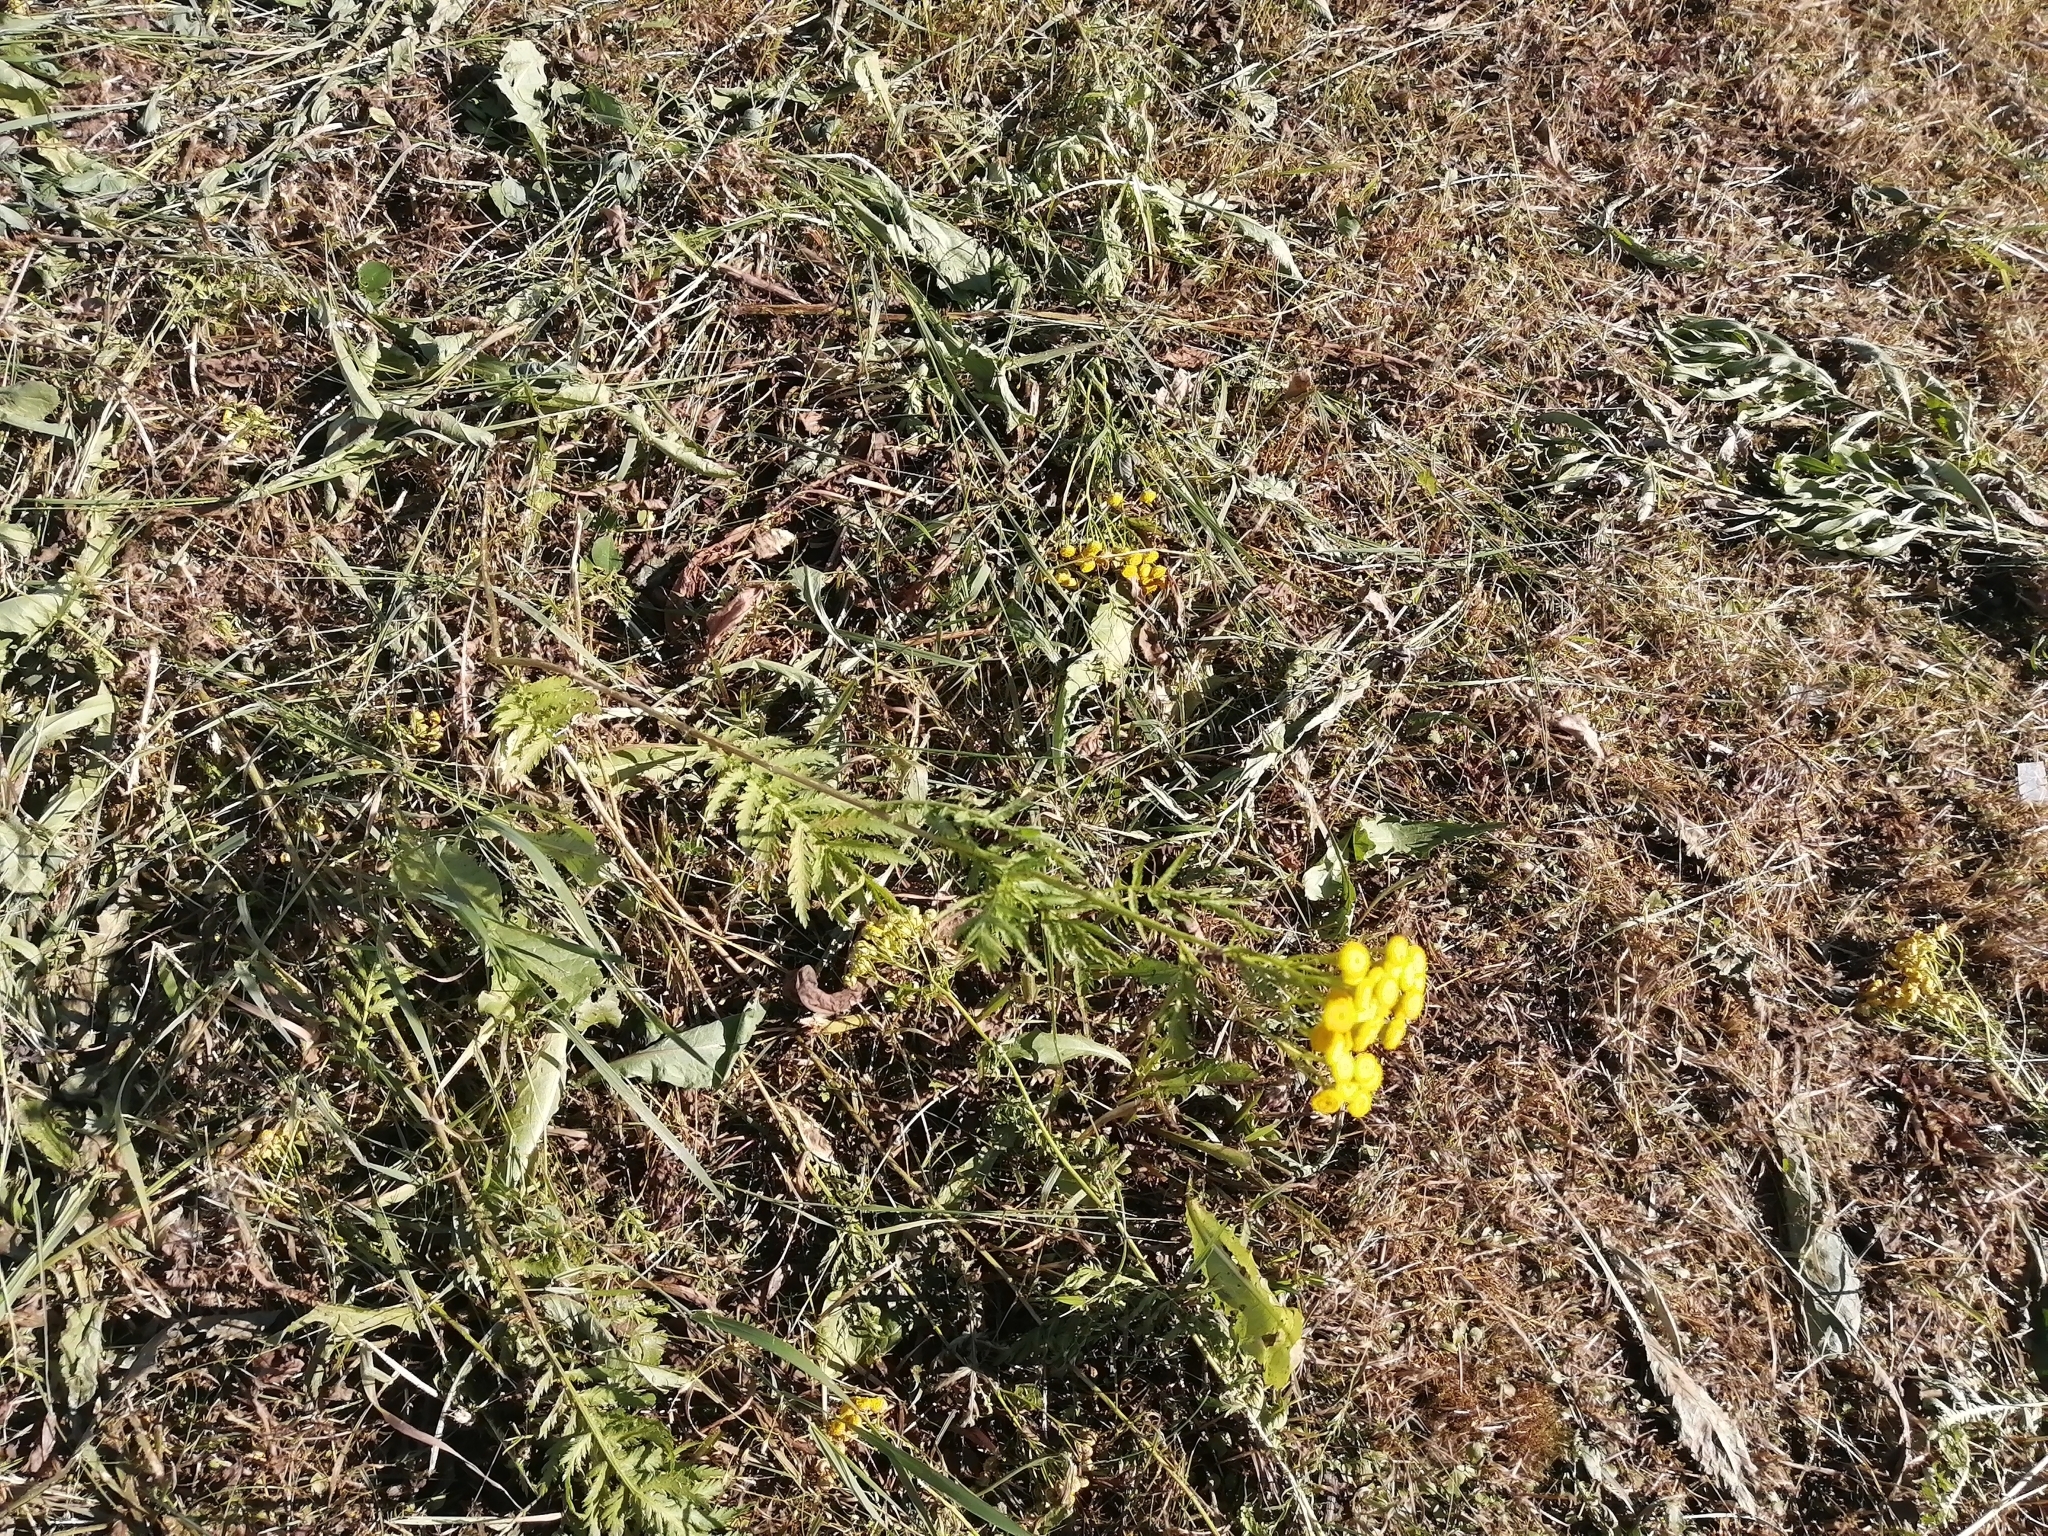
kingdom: Plantae
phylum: Tracheophyta
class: Magnoliopsida
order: Asterales
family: Asteraceae
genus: Tanacetum
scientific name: Tanacetum vulgare
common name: Common tansy
